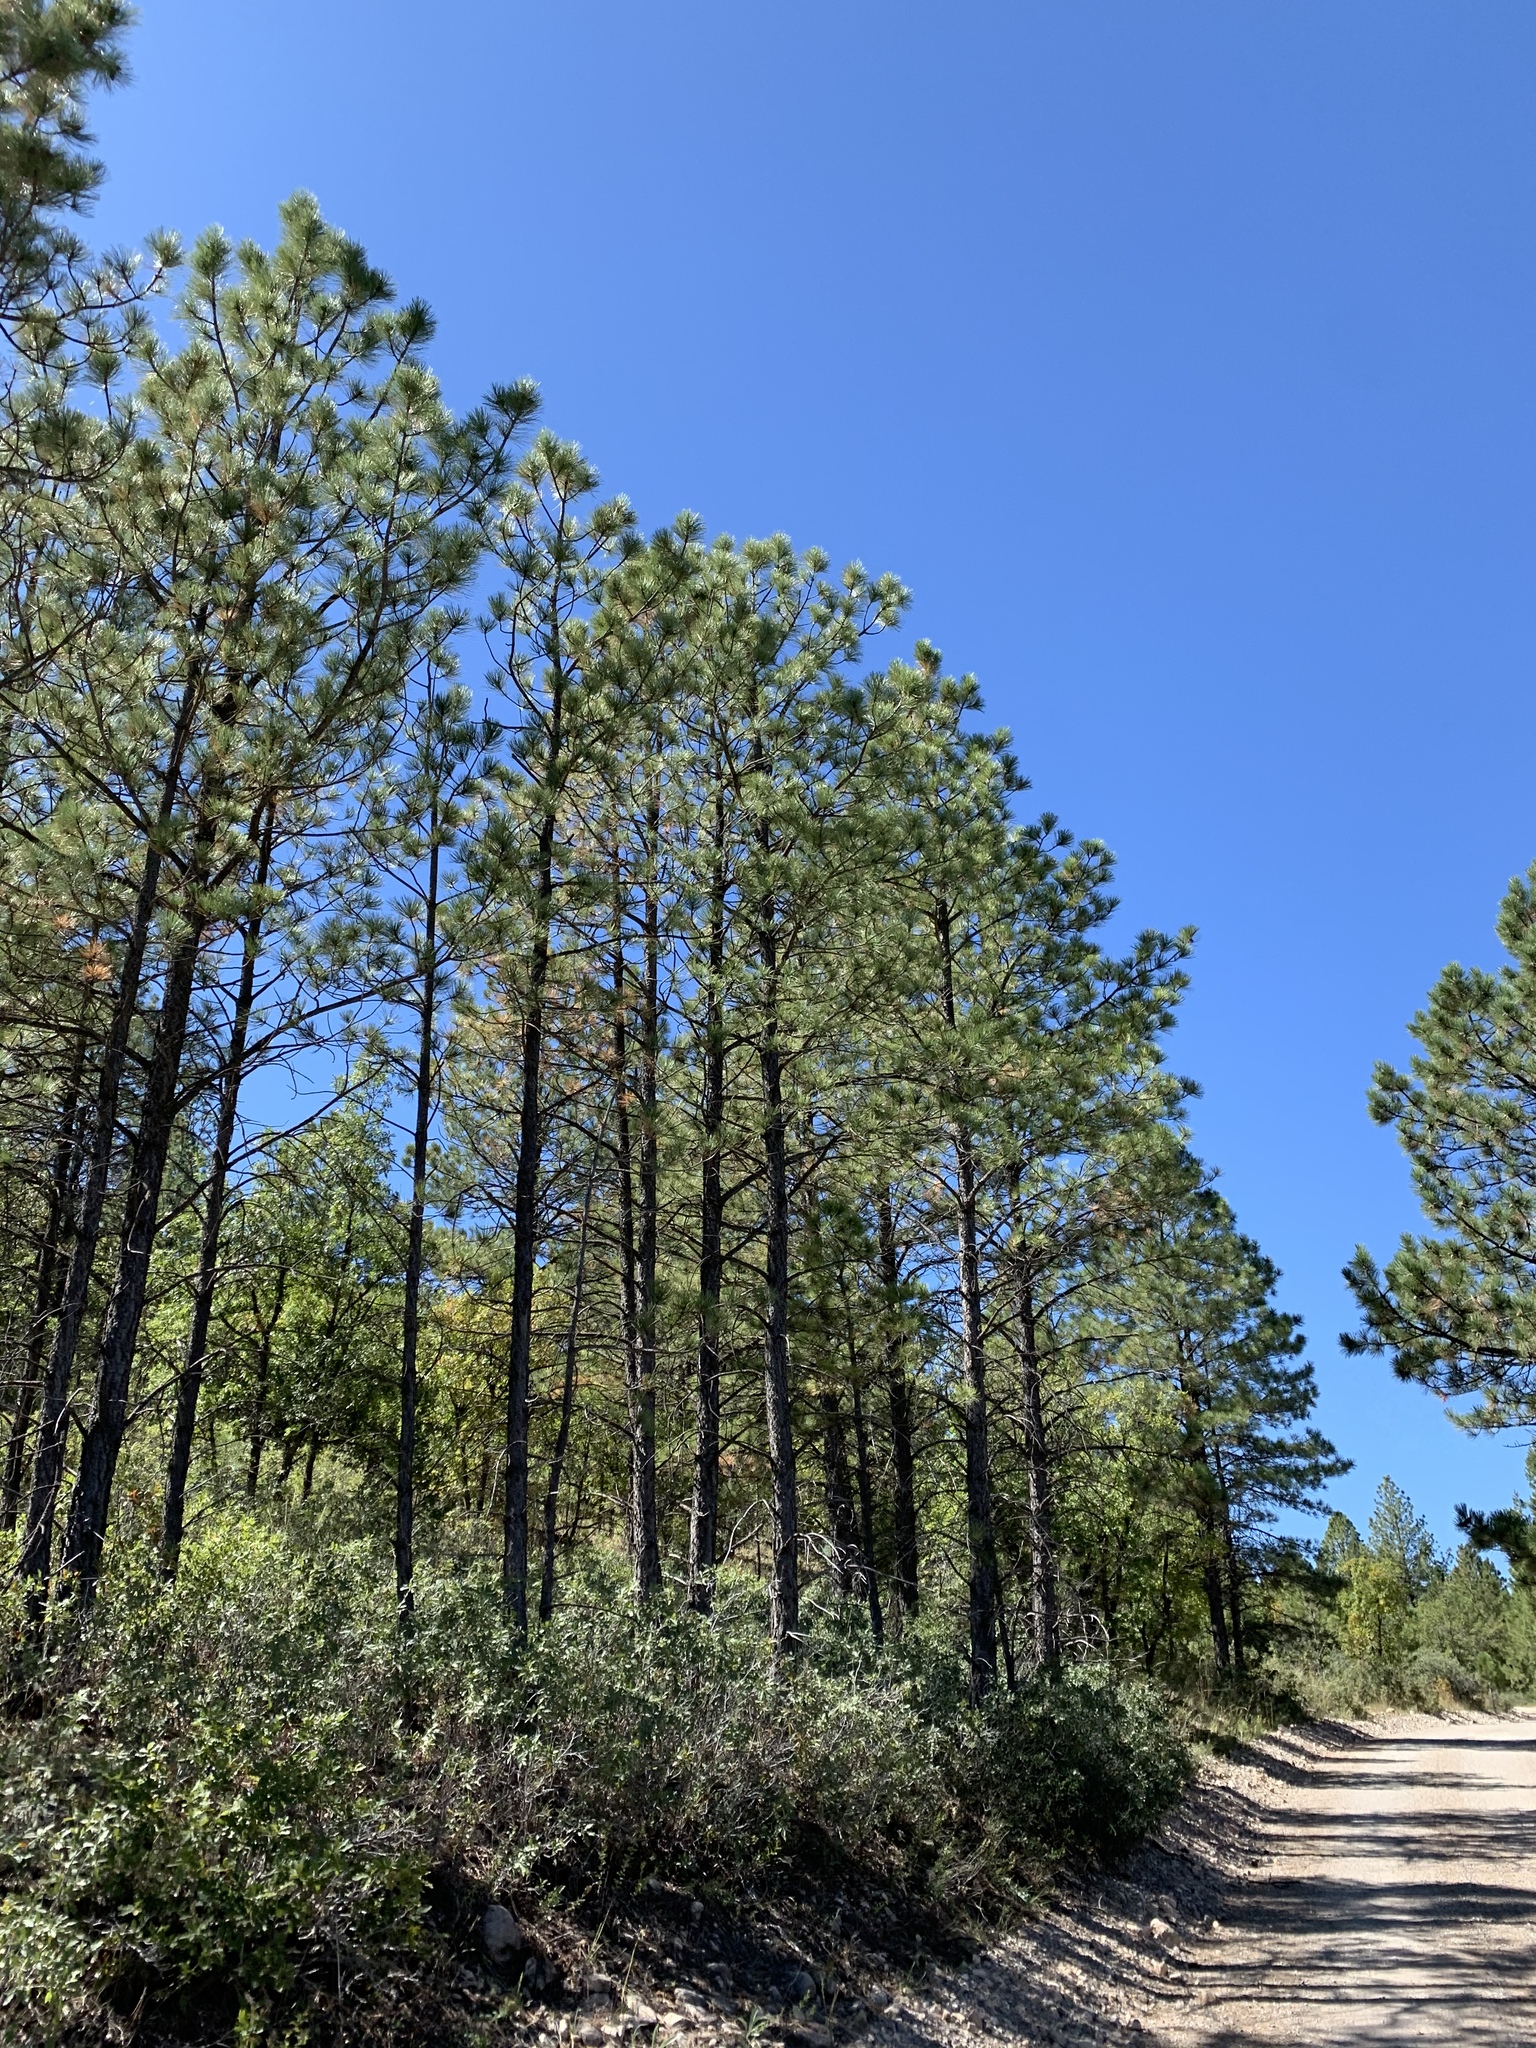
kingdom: Plantae
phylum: Tracheophyta
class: Pinopsida
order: Pinales
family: Pinaceae
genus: Pinus
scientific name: Pinus ponderosa
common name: Western yellow-pine
